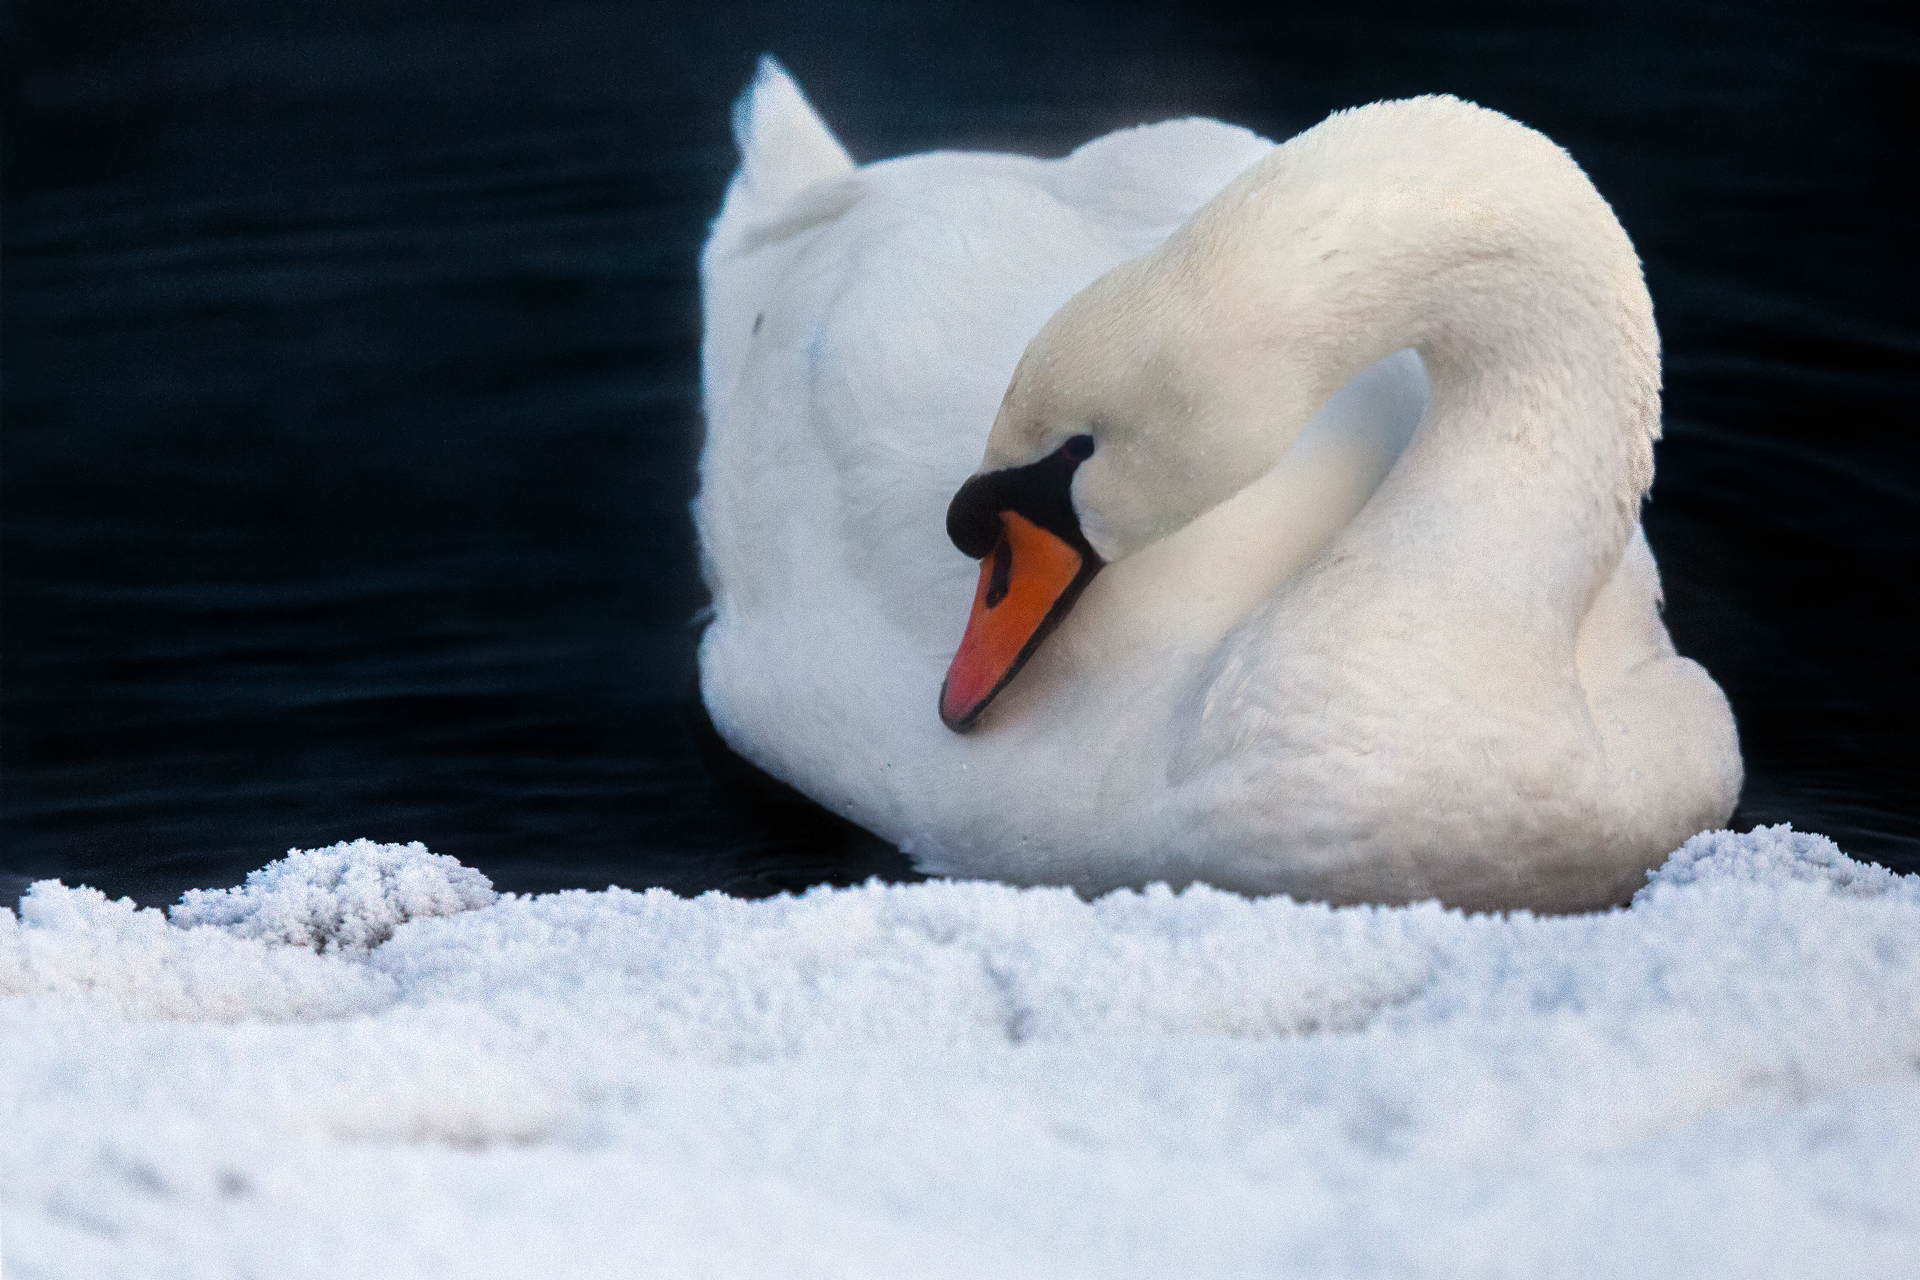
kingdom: Animalia
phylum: Chordata
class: Aves
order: Anseriformes
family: Anatidae
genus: Cygnus
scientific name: Cygnus olor
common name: Mute swan
